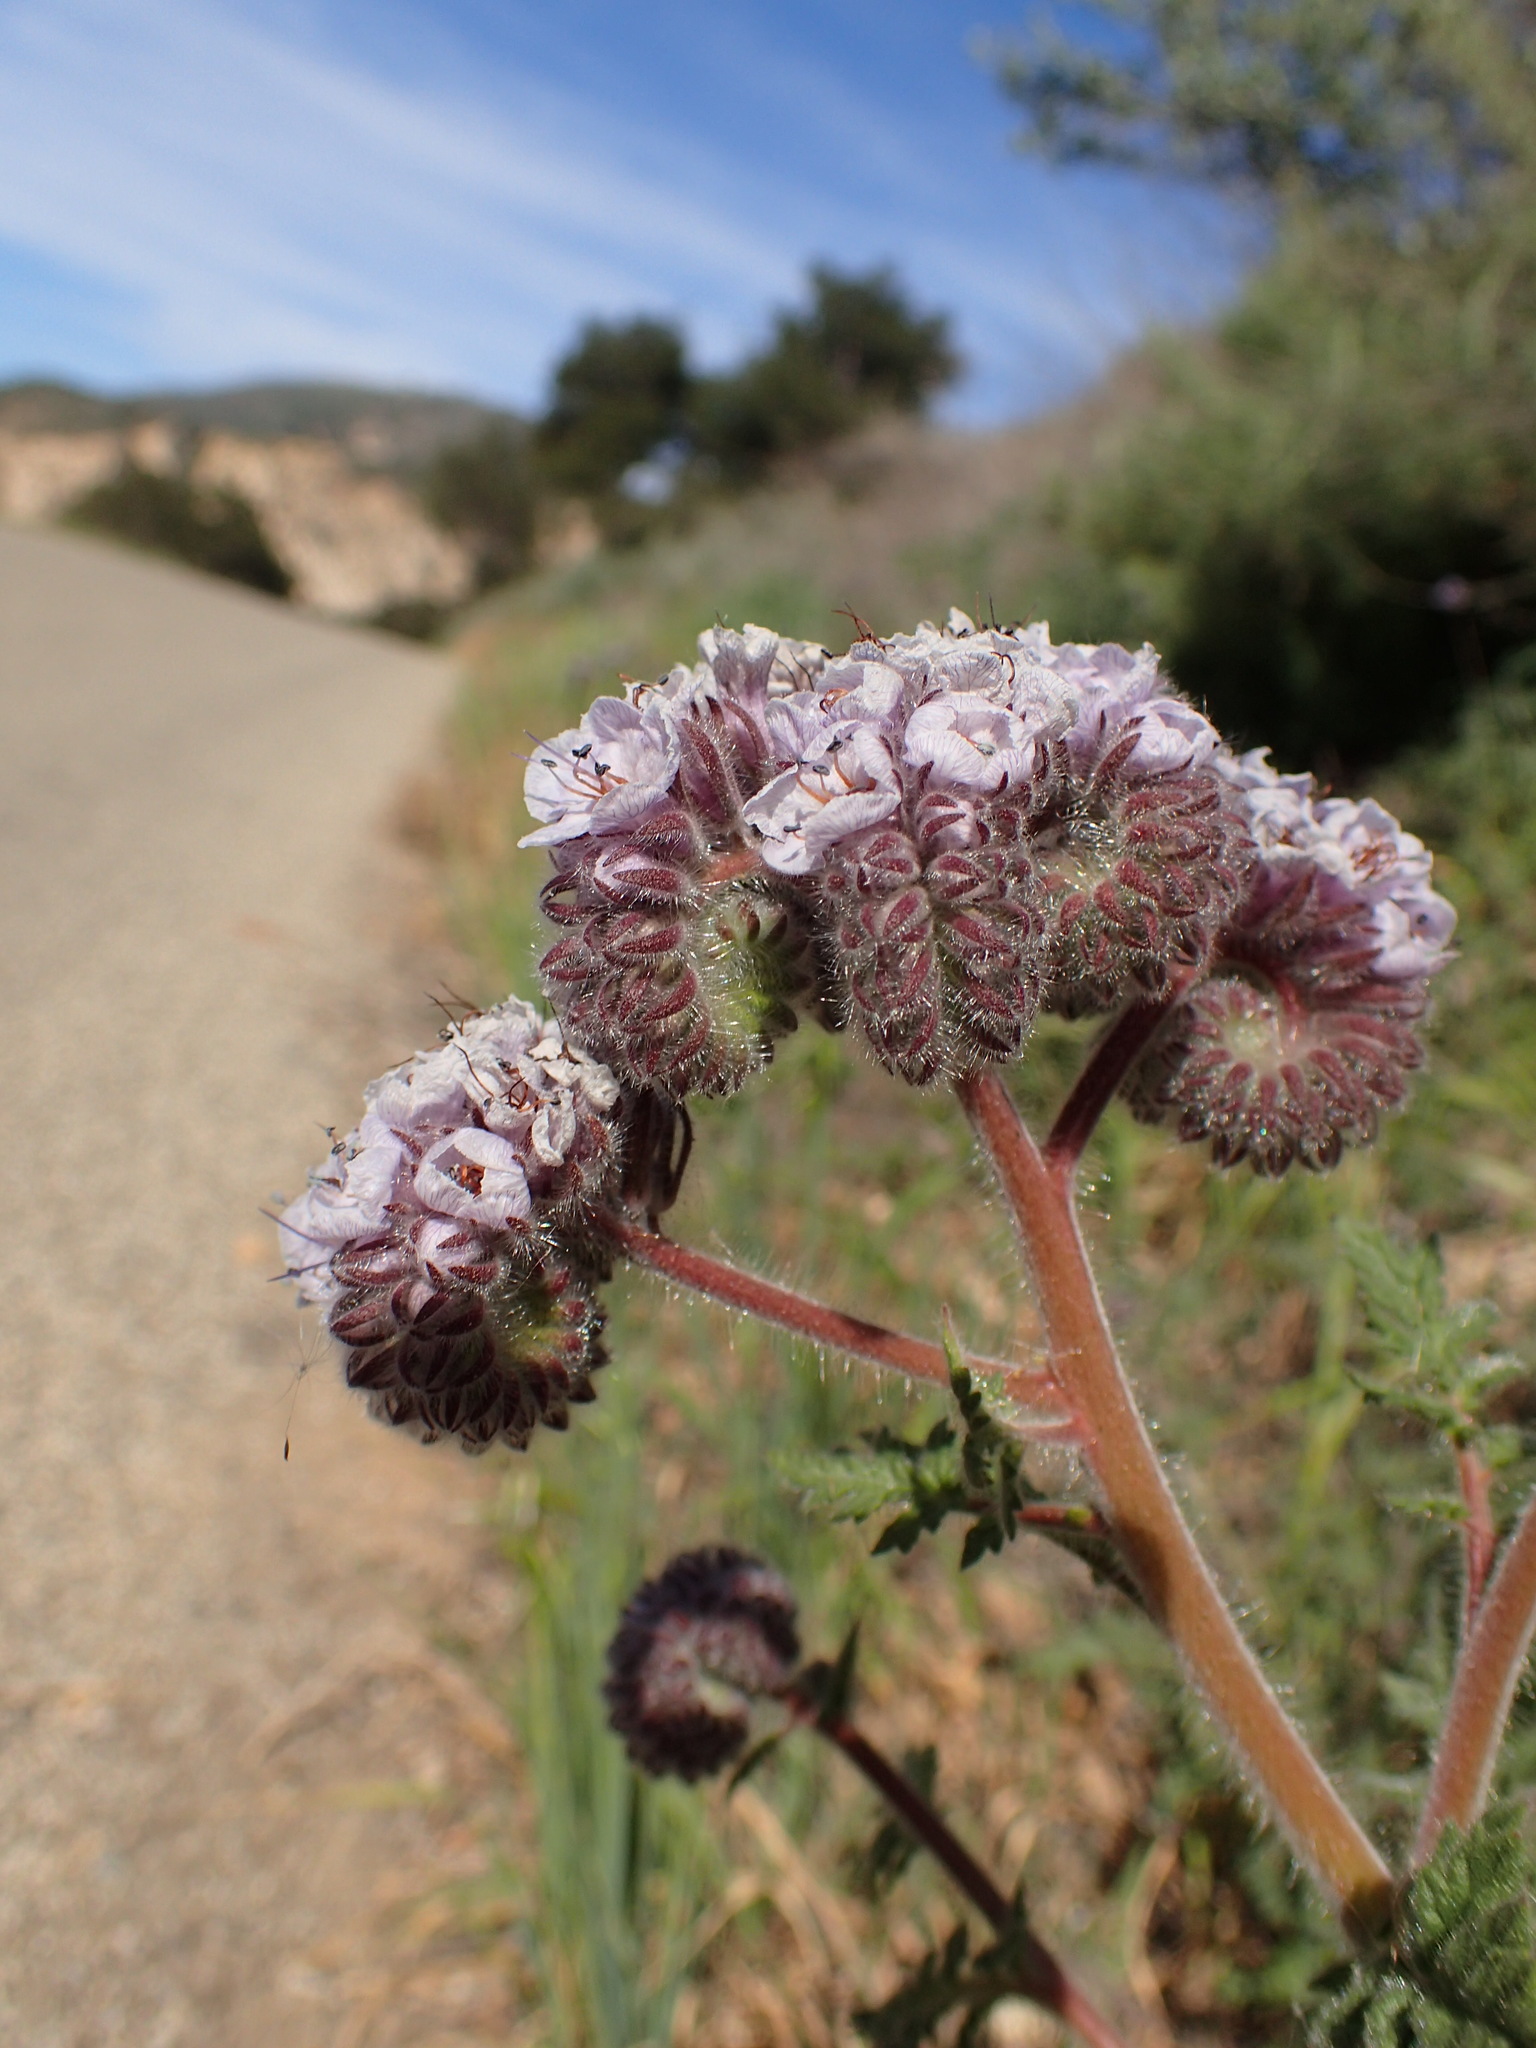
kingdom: Plantae
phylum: Tracheophyta
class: Magnoliopsida
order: Boraginales
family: Hydrophyllaceae
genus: Phacelia
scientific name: Phacelia hubbyi
